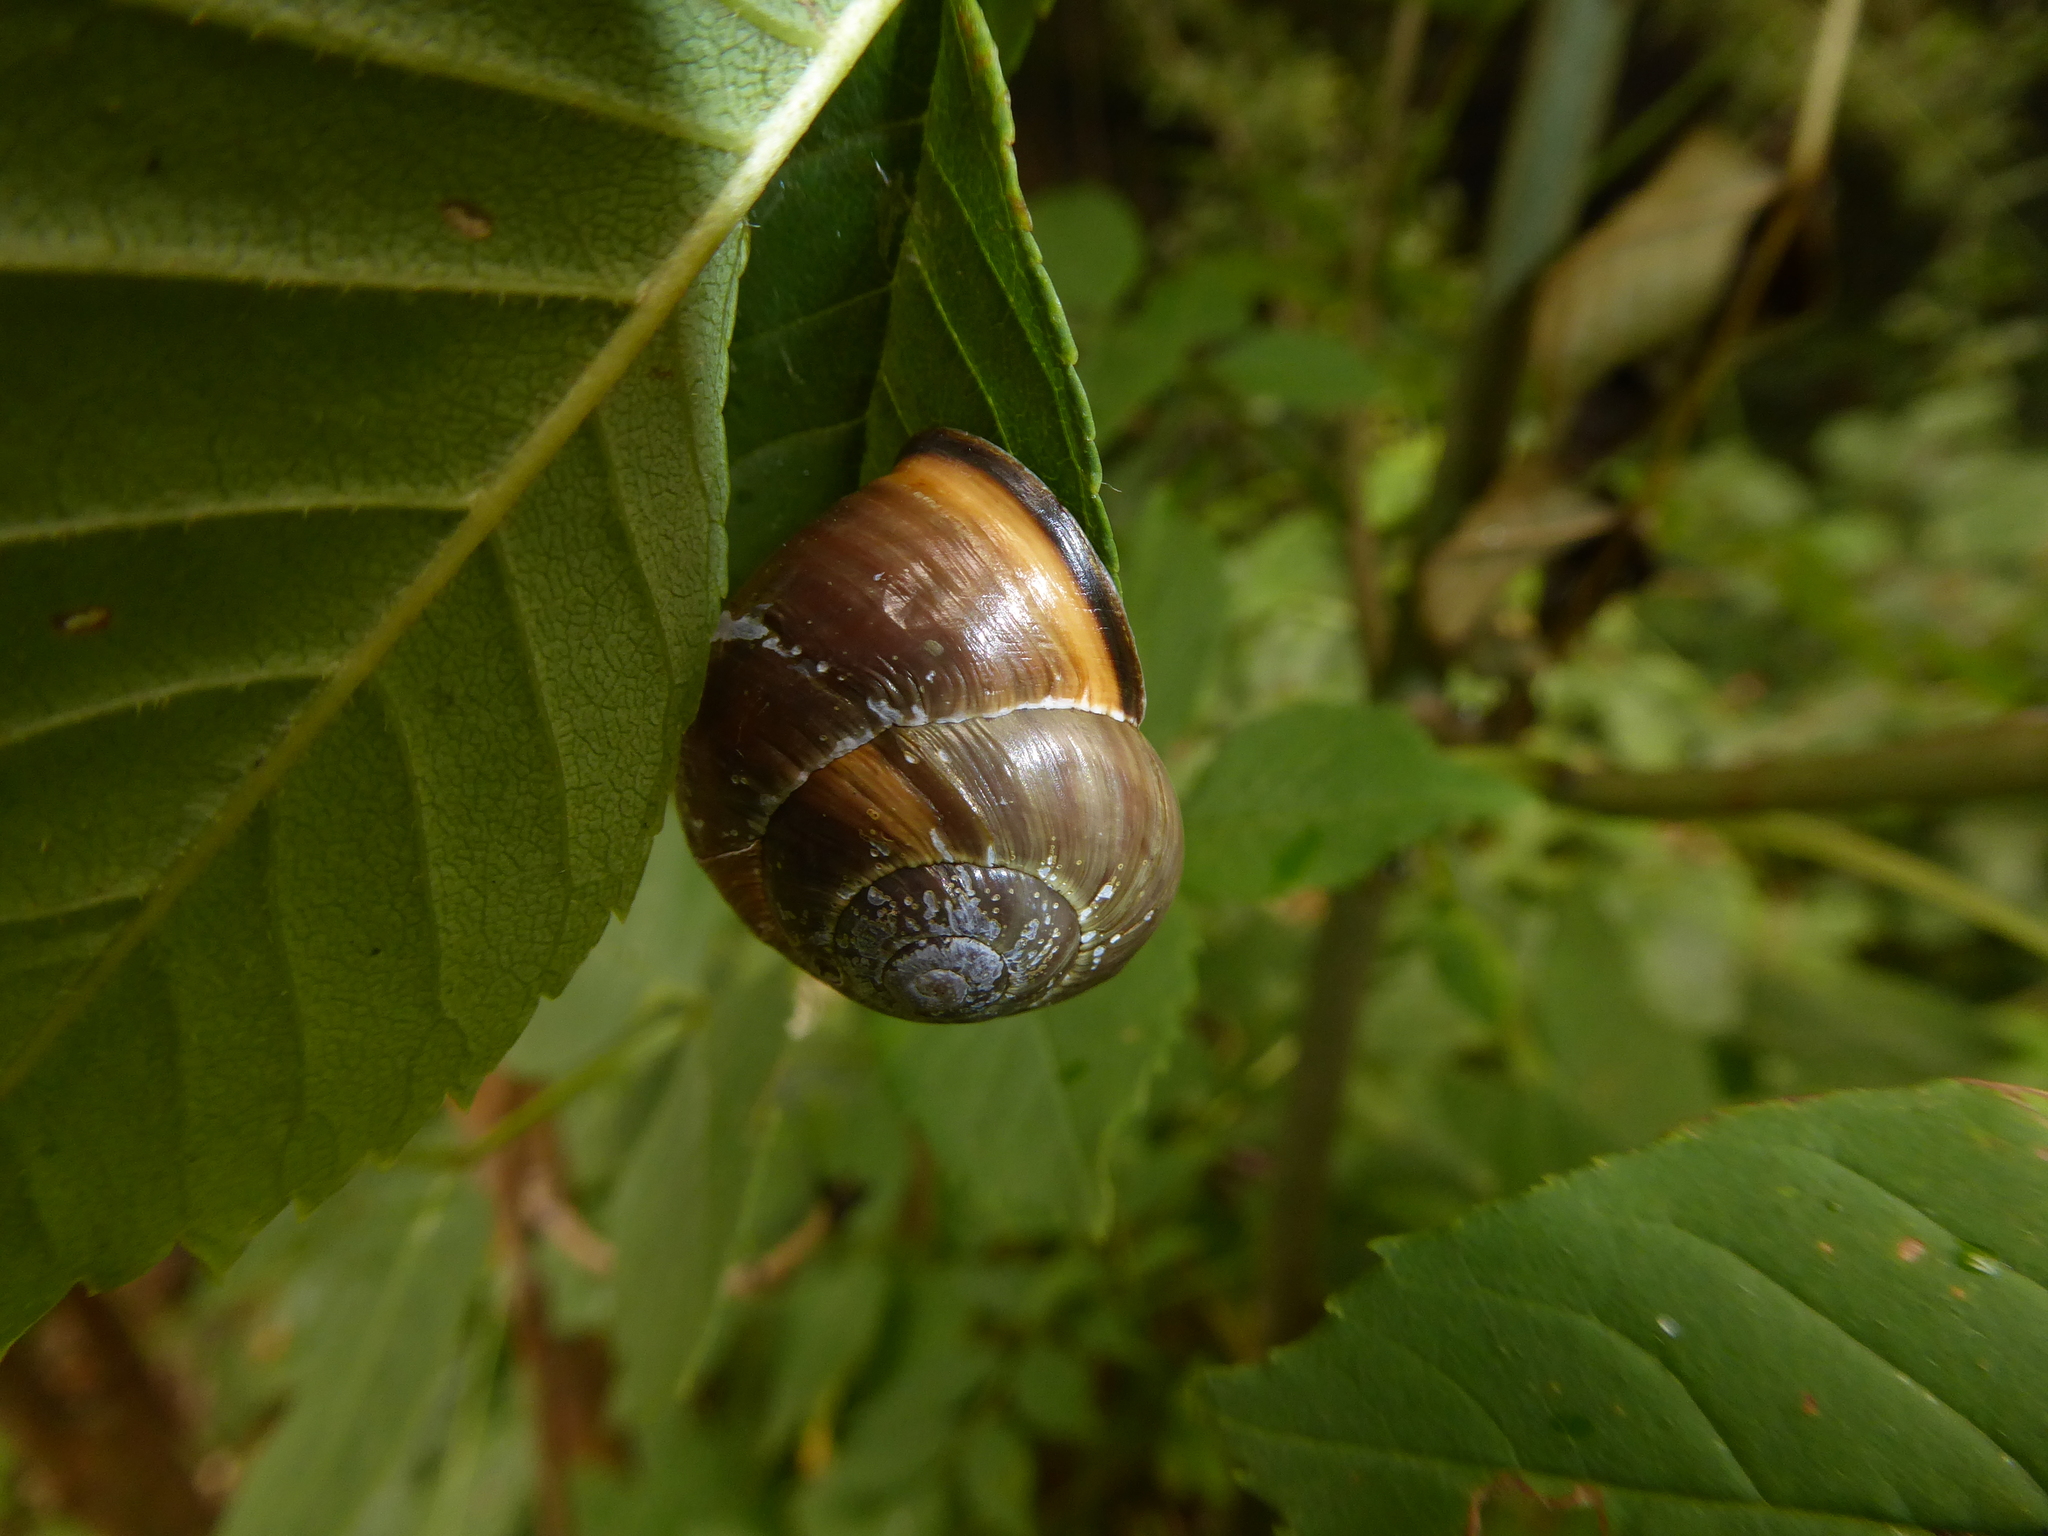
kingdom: Animalia
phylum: Mollusca
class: Gastropoda
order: Stylommatophora
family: Helicidae
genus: Cepaea
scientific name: Cepaea nemoralis
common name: Grovesnail
